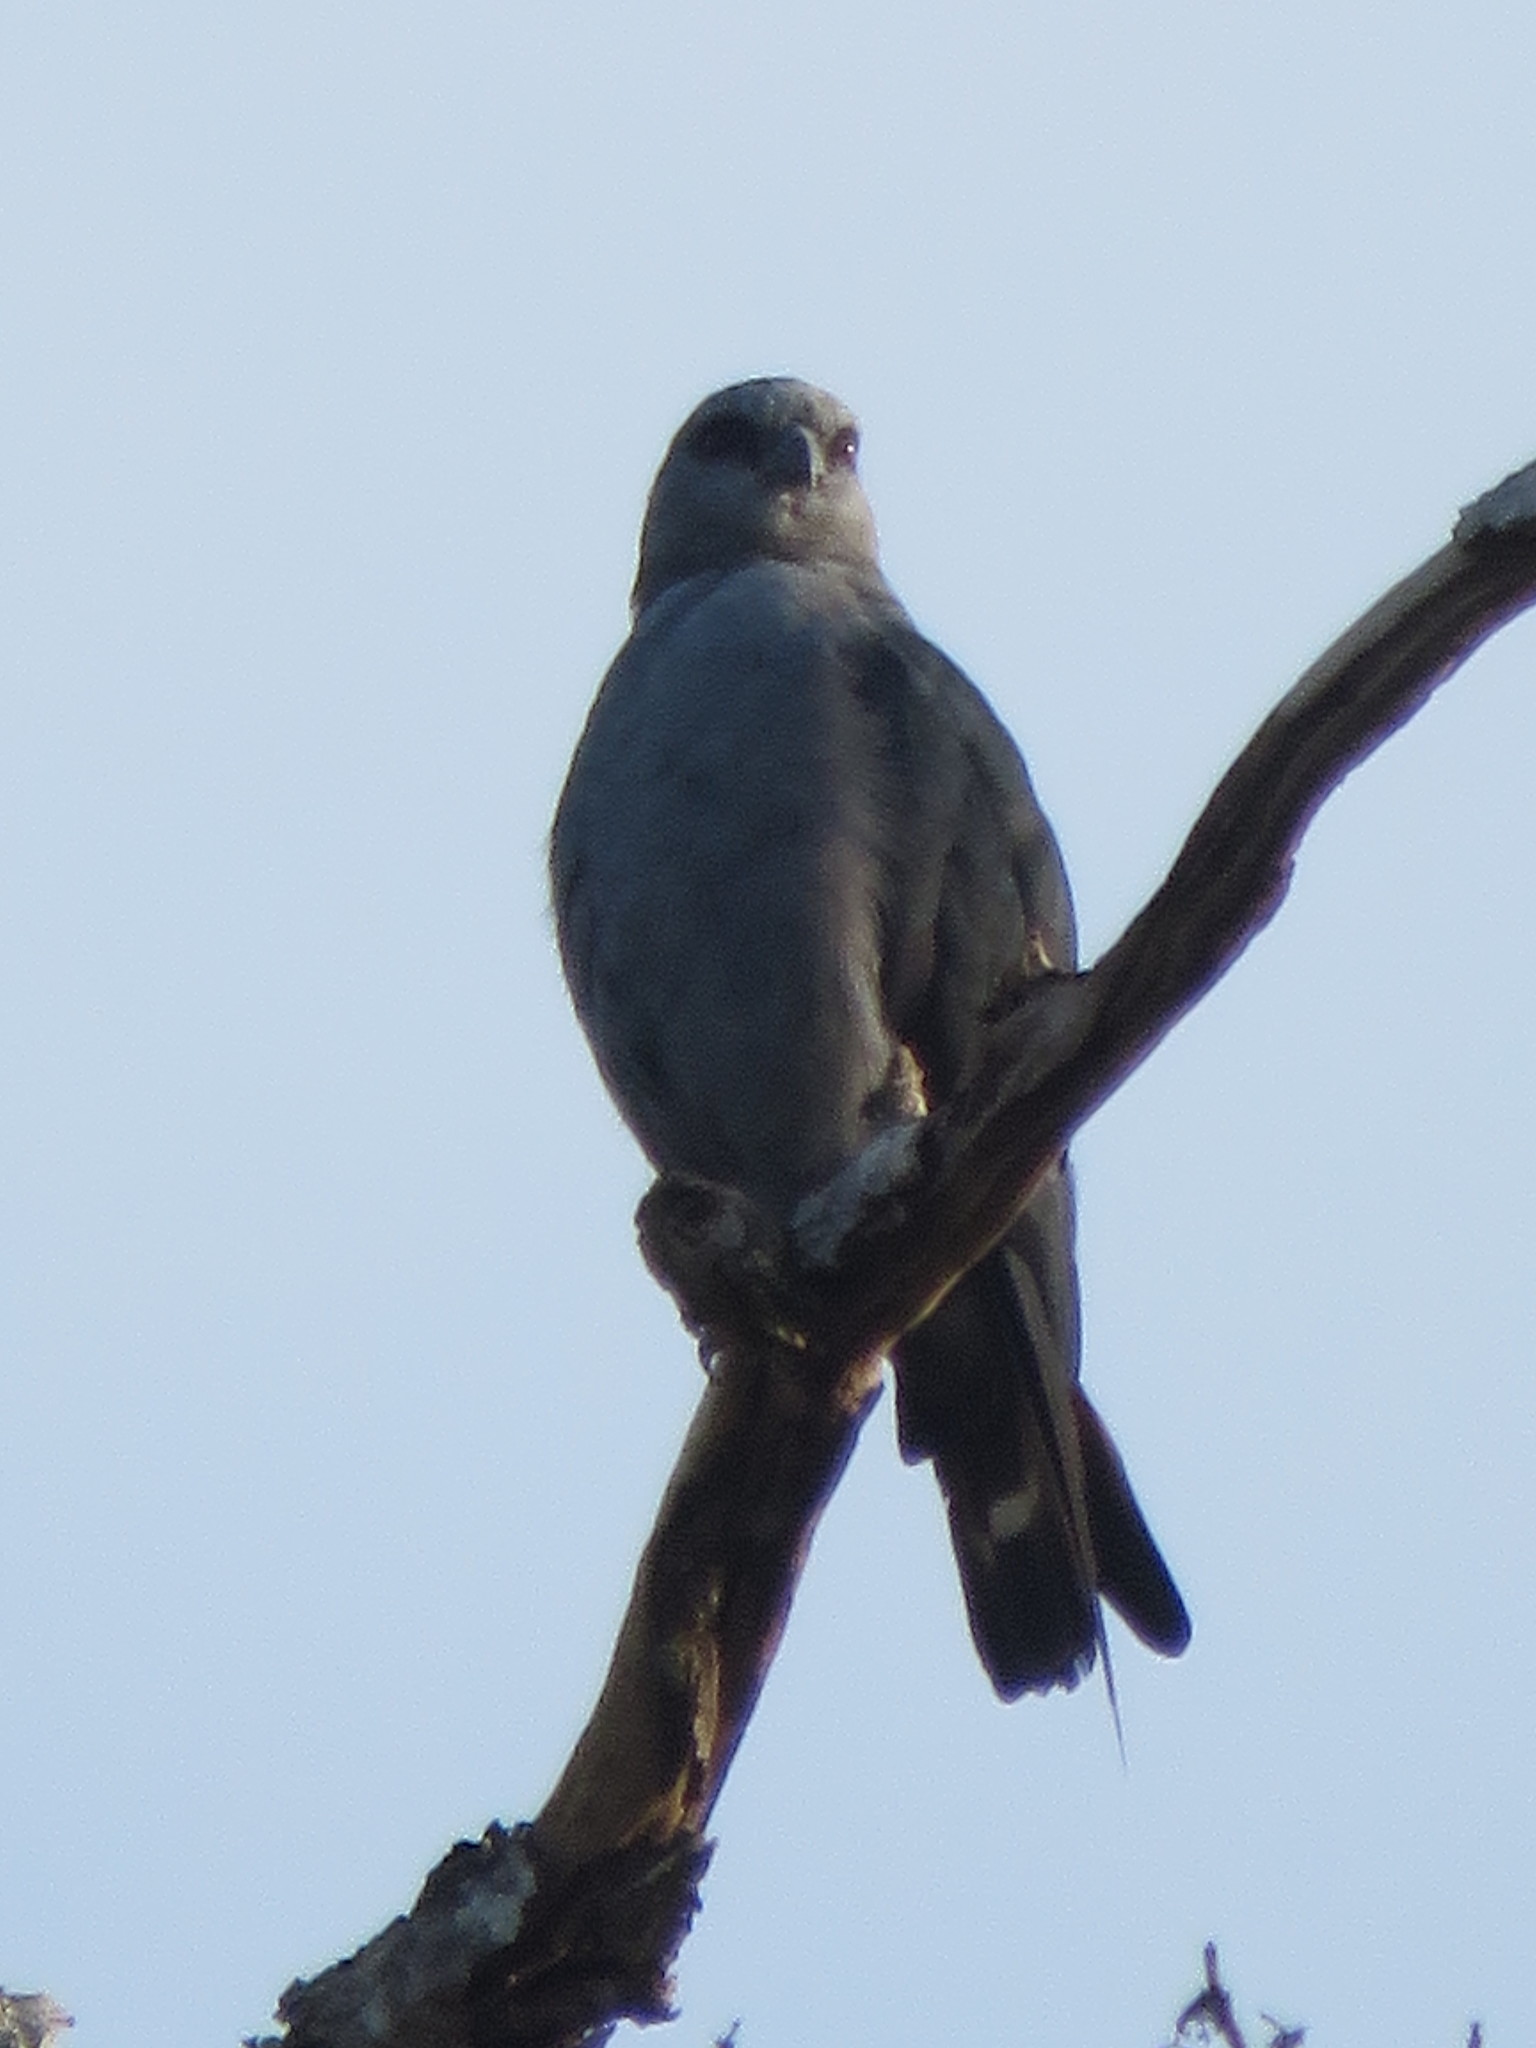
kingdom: Animalia
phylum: Chordata
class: Aves
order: Accipitriformes
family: Accipitridae
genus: Ictinia
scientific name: Ictinia plumbea
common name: Plumbeous kite
